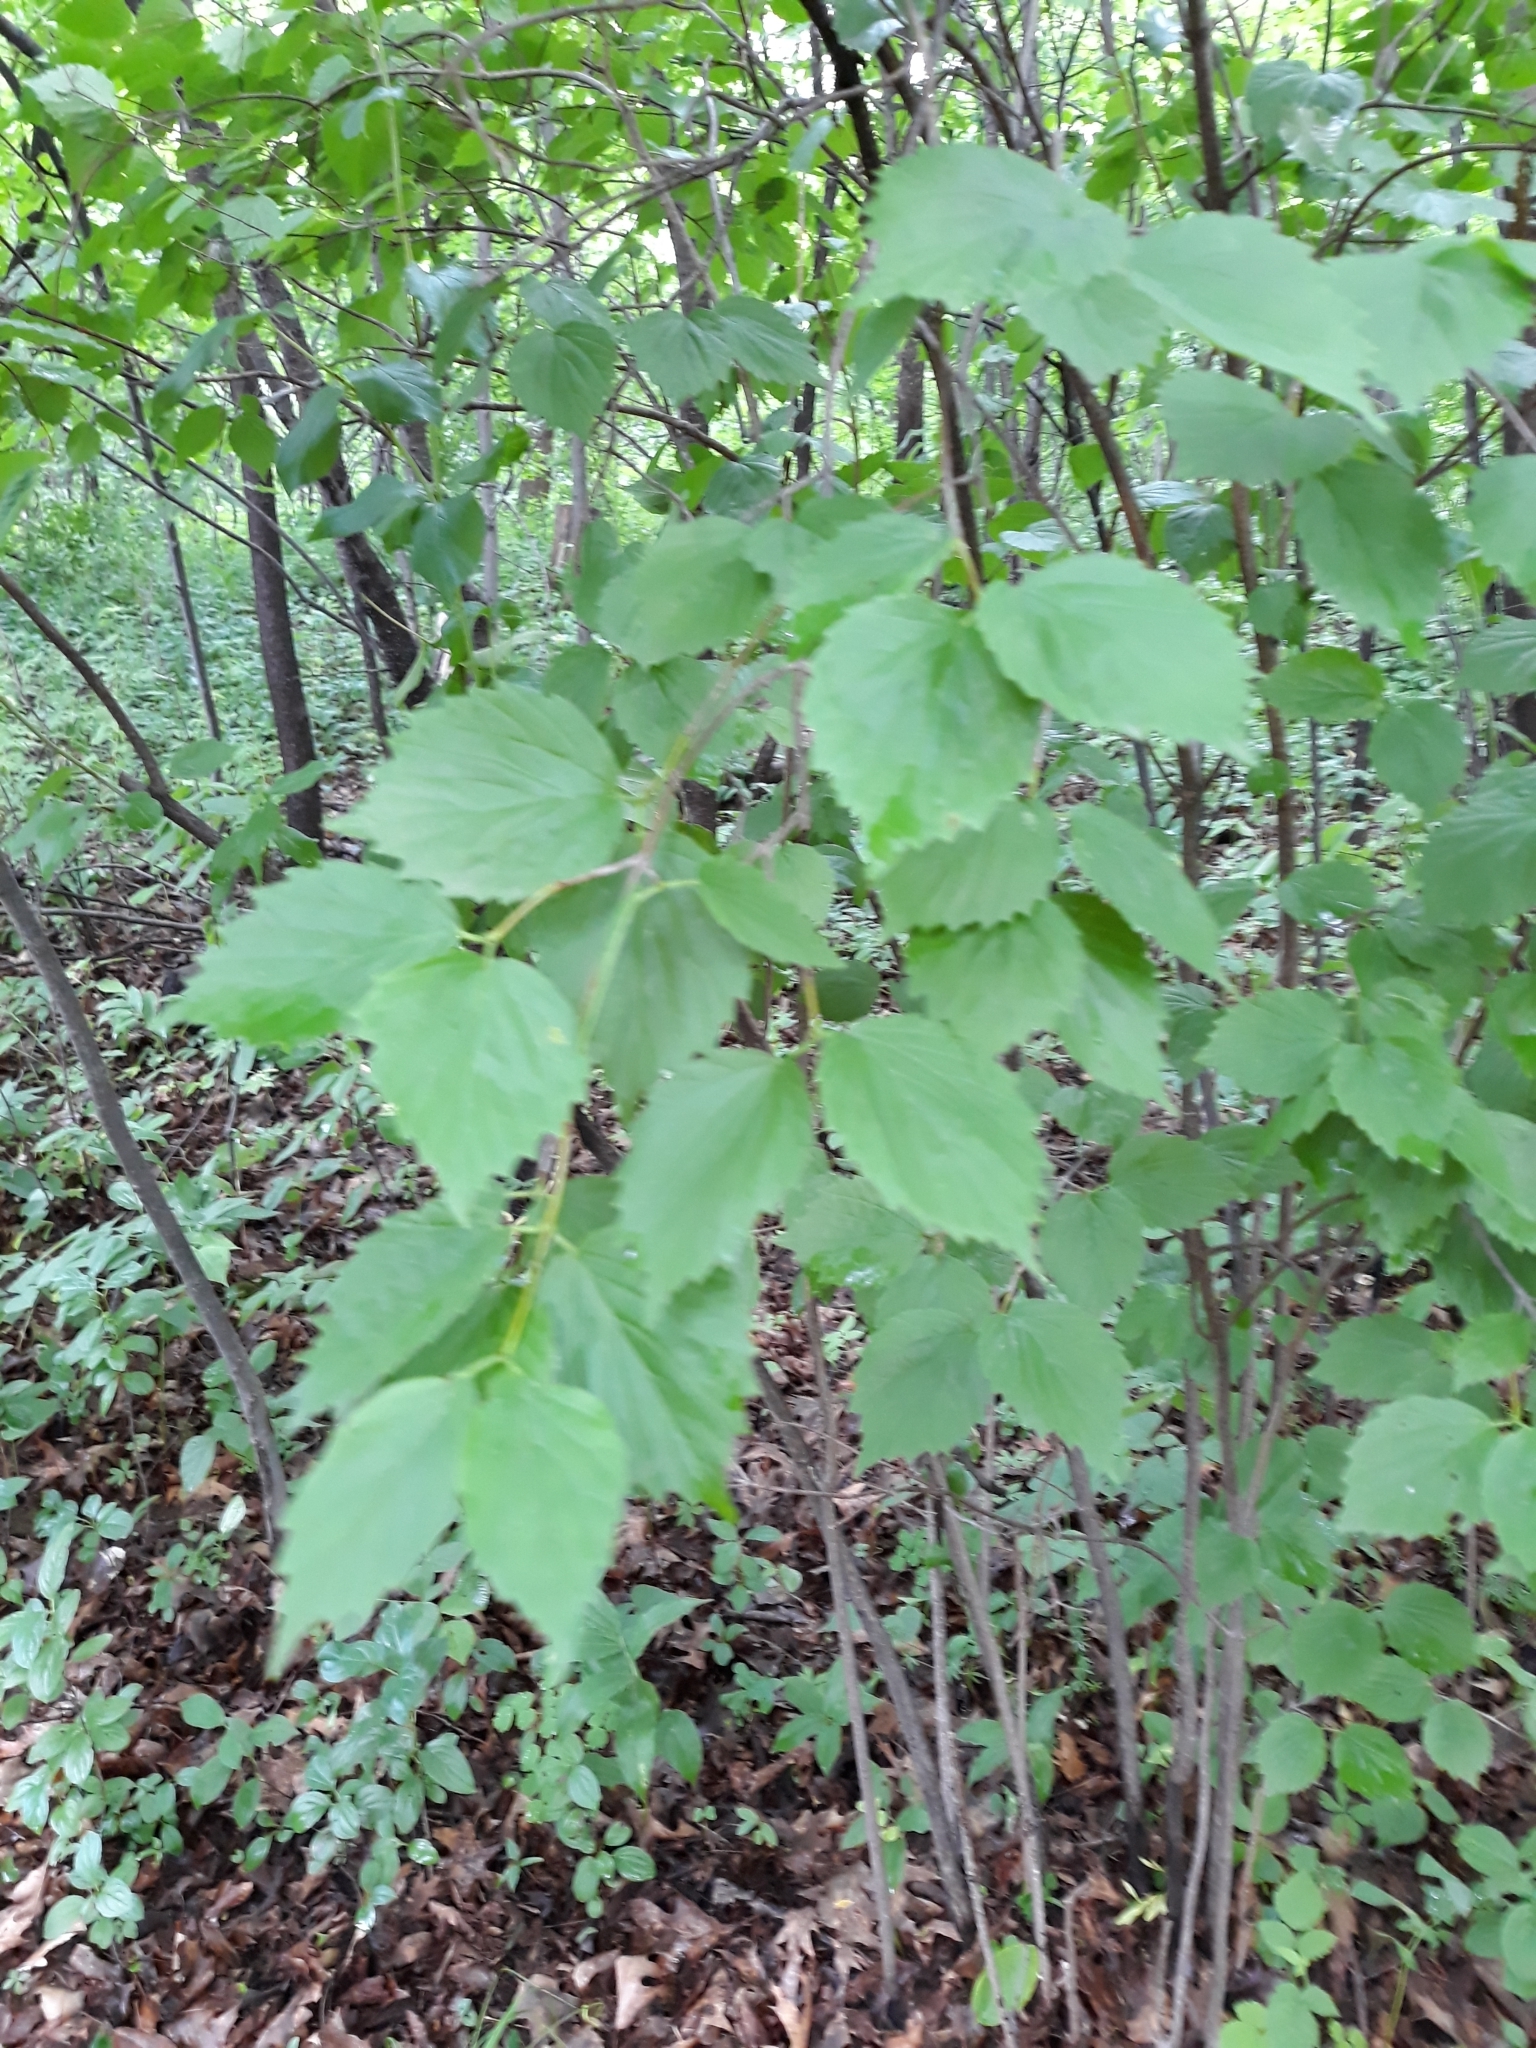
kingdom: Plantae
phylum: Tracheophyta
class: Magnoliopsida
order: Dipsacales
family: Viburnaceae
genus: Viburnum
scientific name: Viburnum rafinesqueanum
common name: Downy arrow-wood
